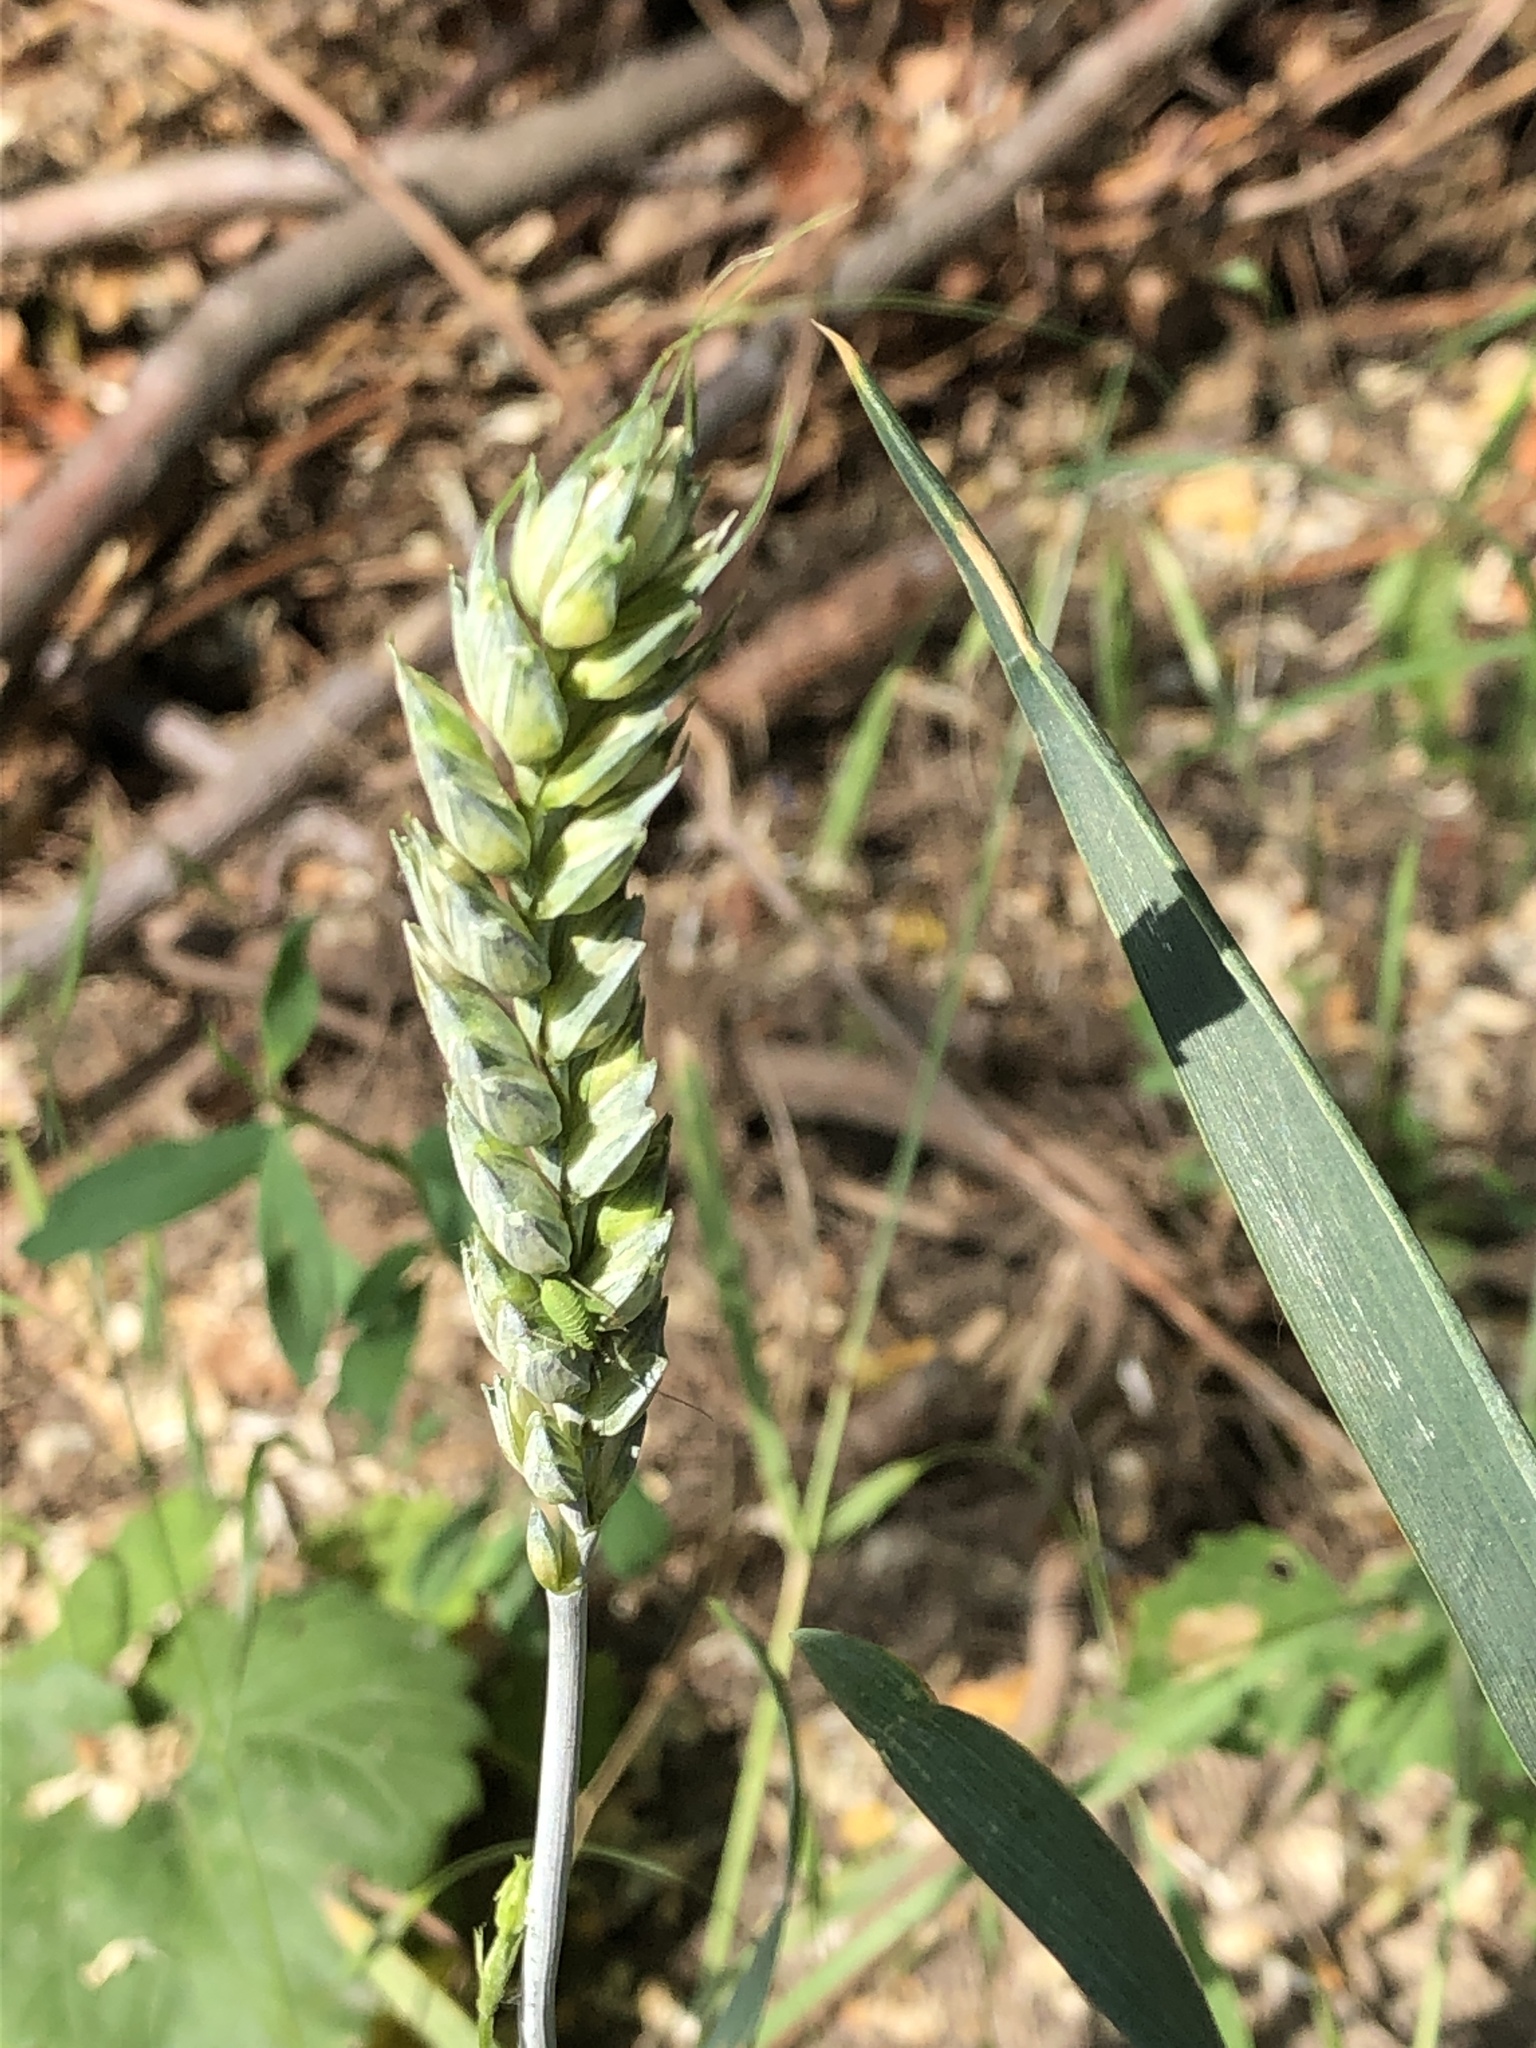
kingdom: Plantae
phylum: Tracheophyta
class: Liliopsida
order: Poales
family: Poaceae
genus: Triticum
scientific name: Triticum aestivum
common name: Common wheat
